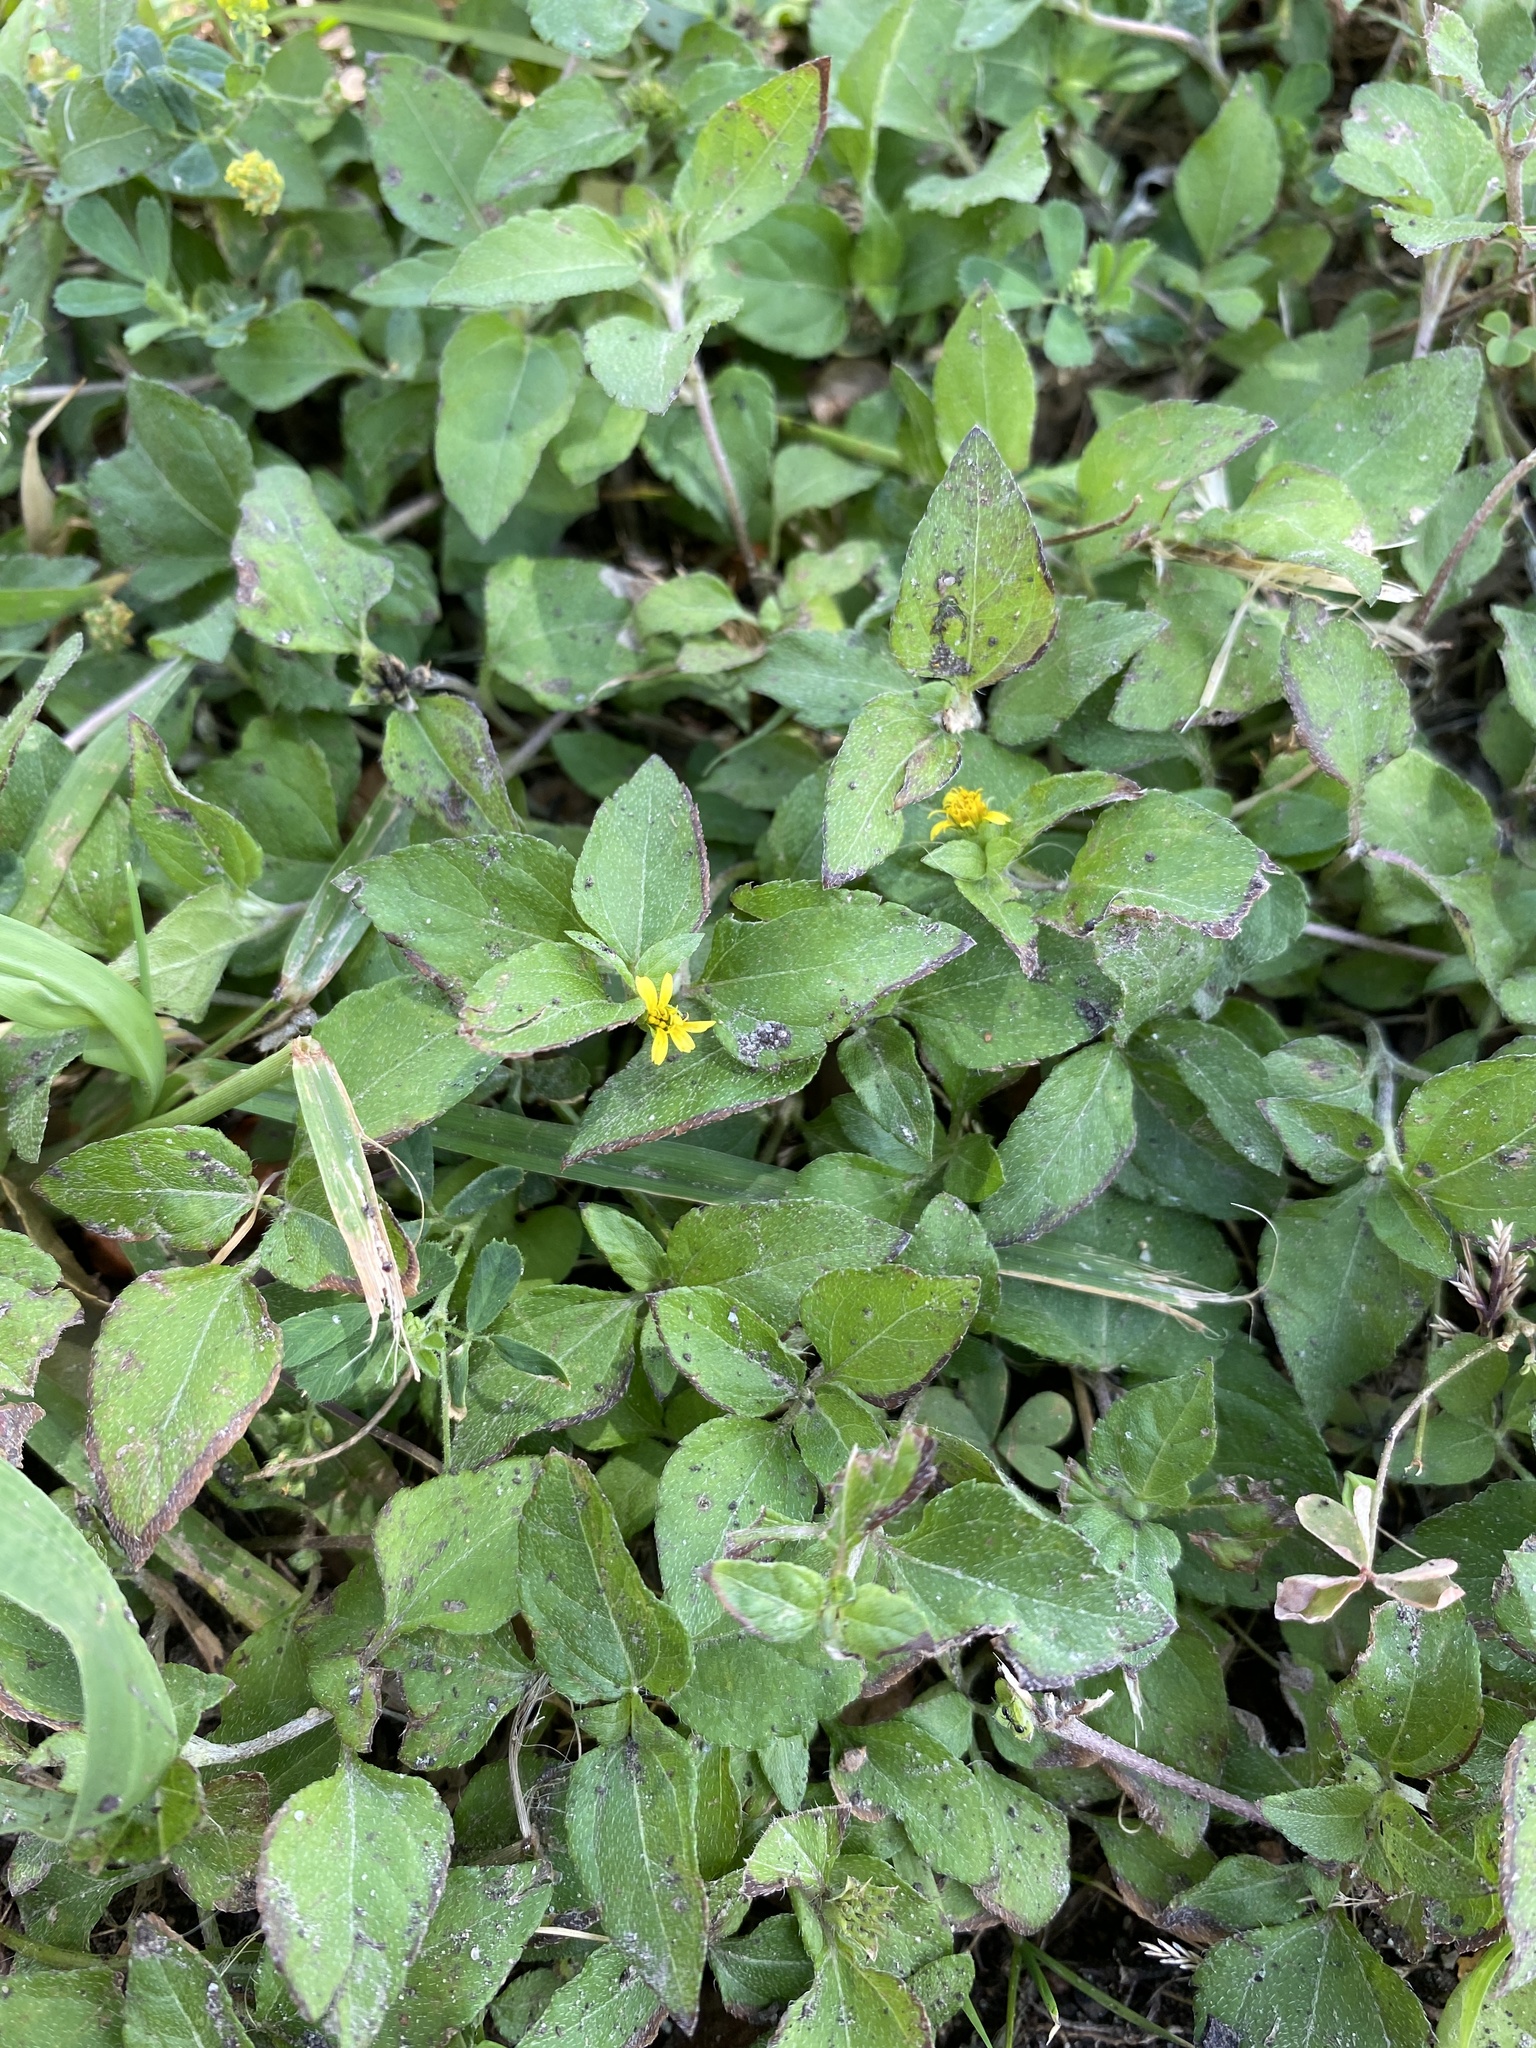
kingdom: Plantae
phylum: Tracheophyta
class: Magnoliopsida
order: Asterales
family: Asteraceae
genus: Calyptocarpus
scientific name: Calyptocarpus vialis
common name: Straggler daisy
